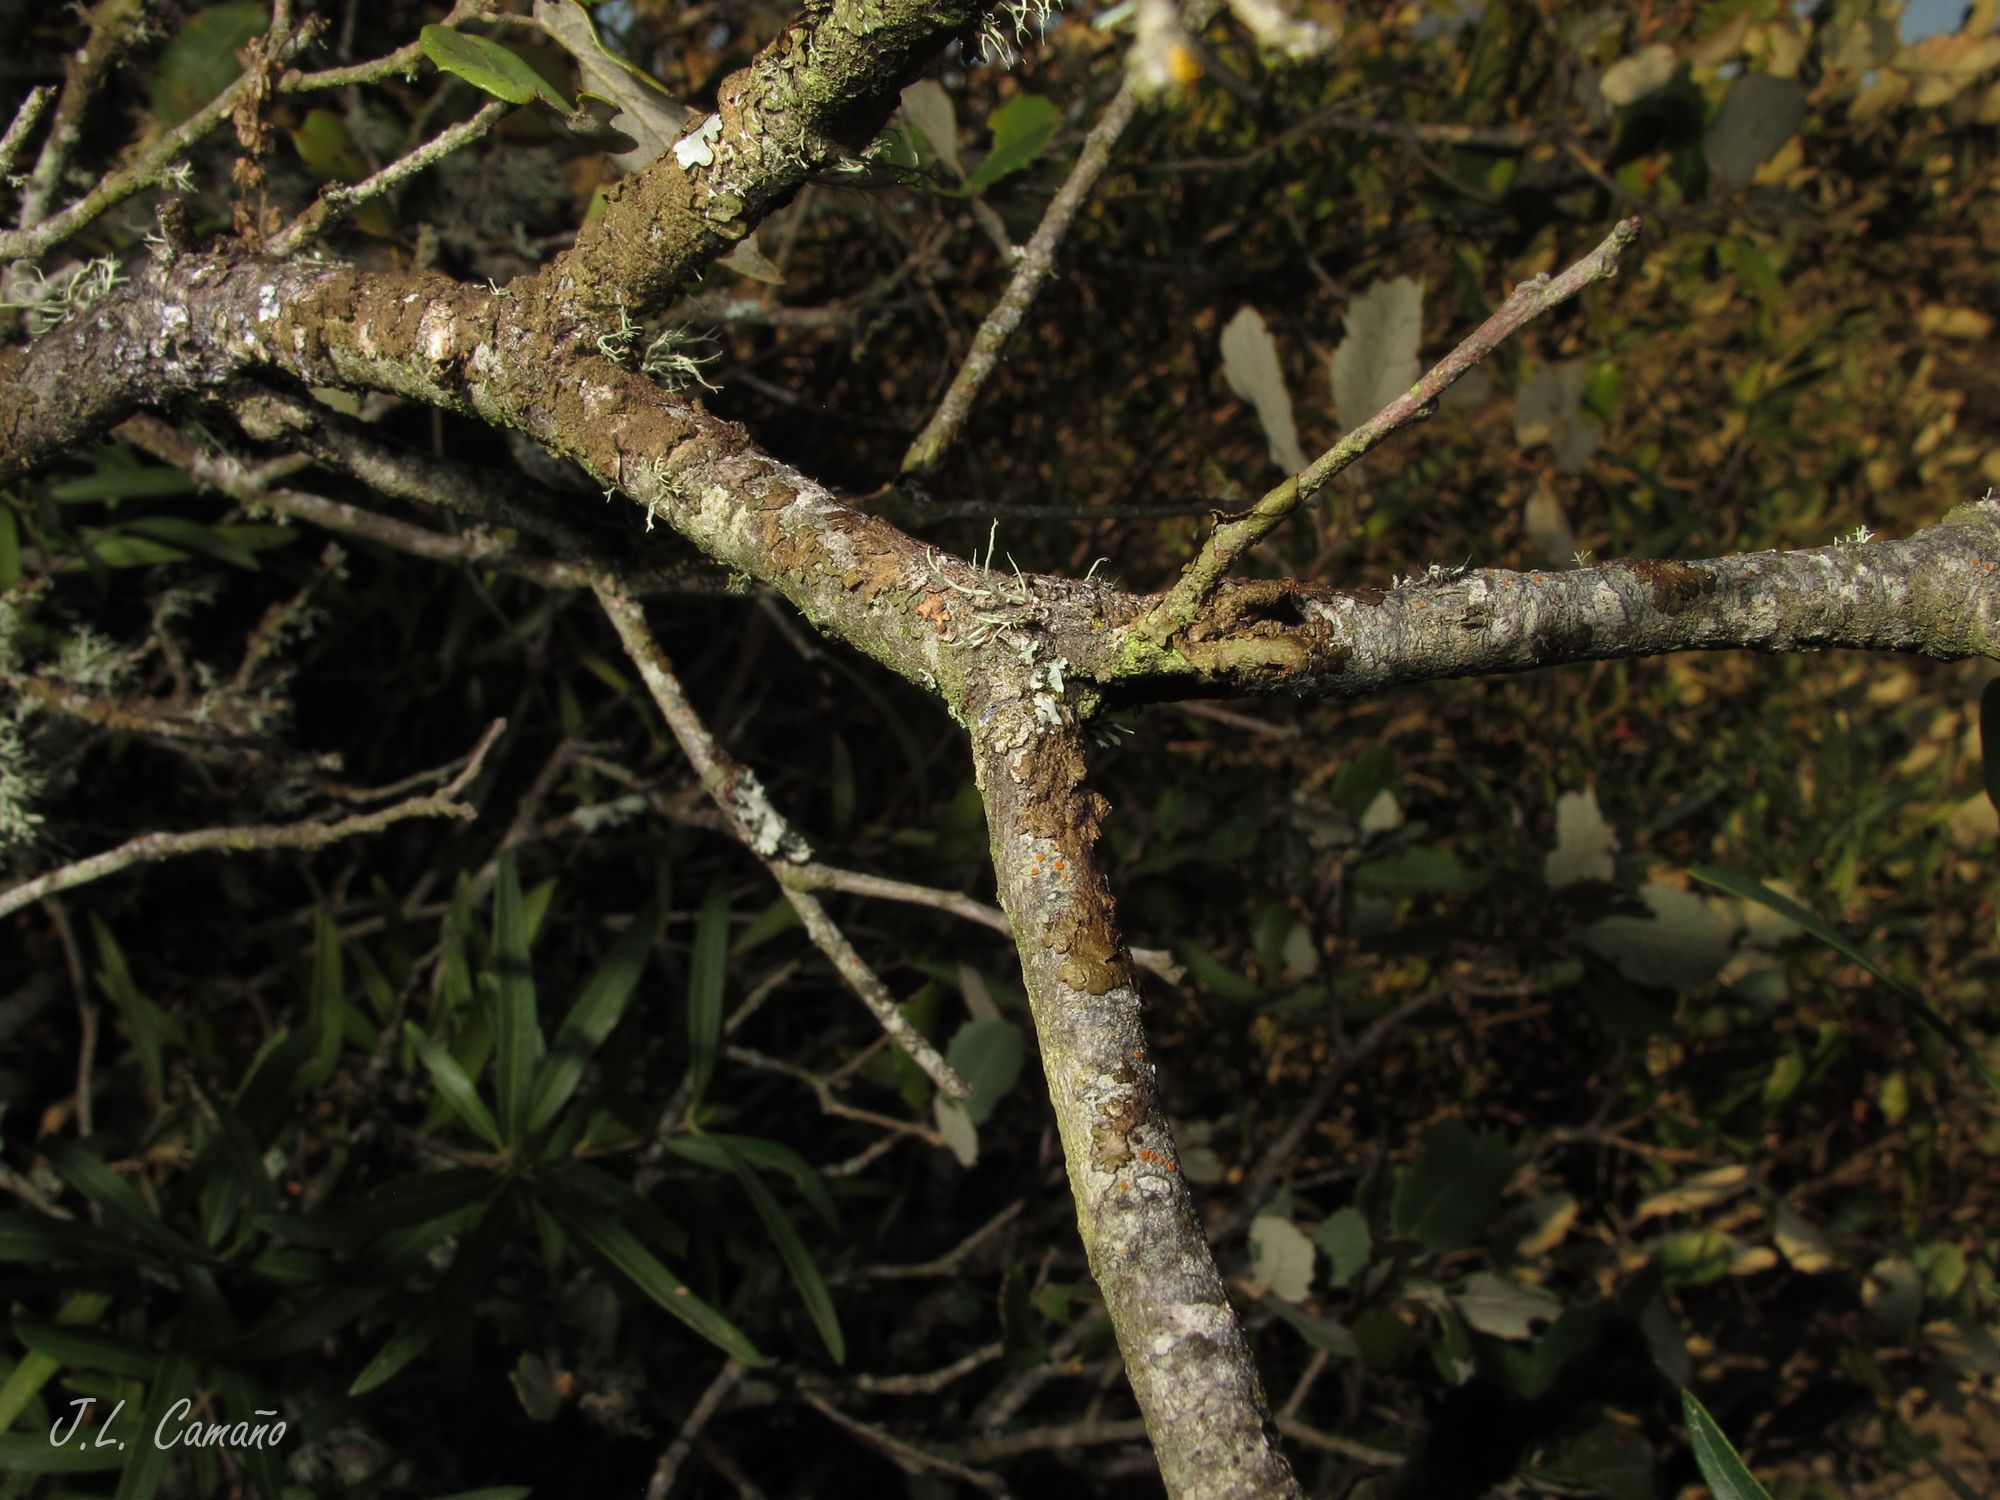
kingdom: Plantae
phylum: Tracheophyta
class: Magnoliopsida
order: Lamiales
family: Oleaceae
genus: Phillyrea
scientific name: Phillyrea angustifolia
